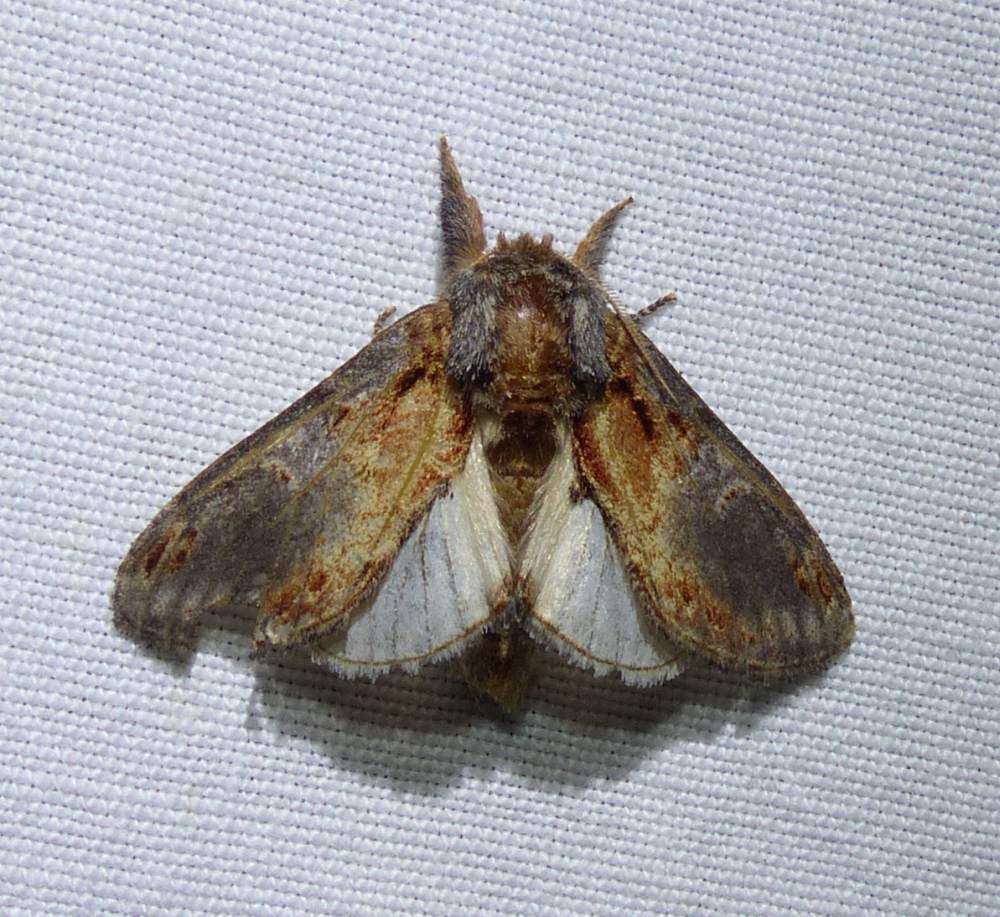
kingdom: Animalia
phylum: Arthropoda
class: Insecta
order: Lepidoptera
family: Notodontidae
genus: Notodonta
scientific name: Notodonta scitipennis
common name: Finned-willow prominent moth
